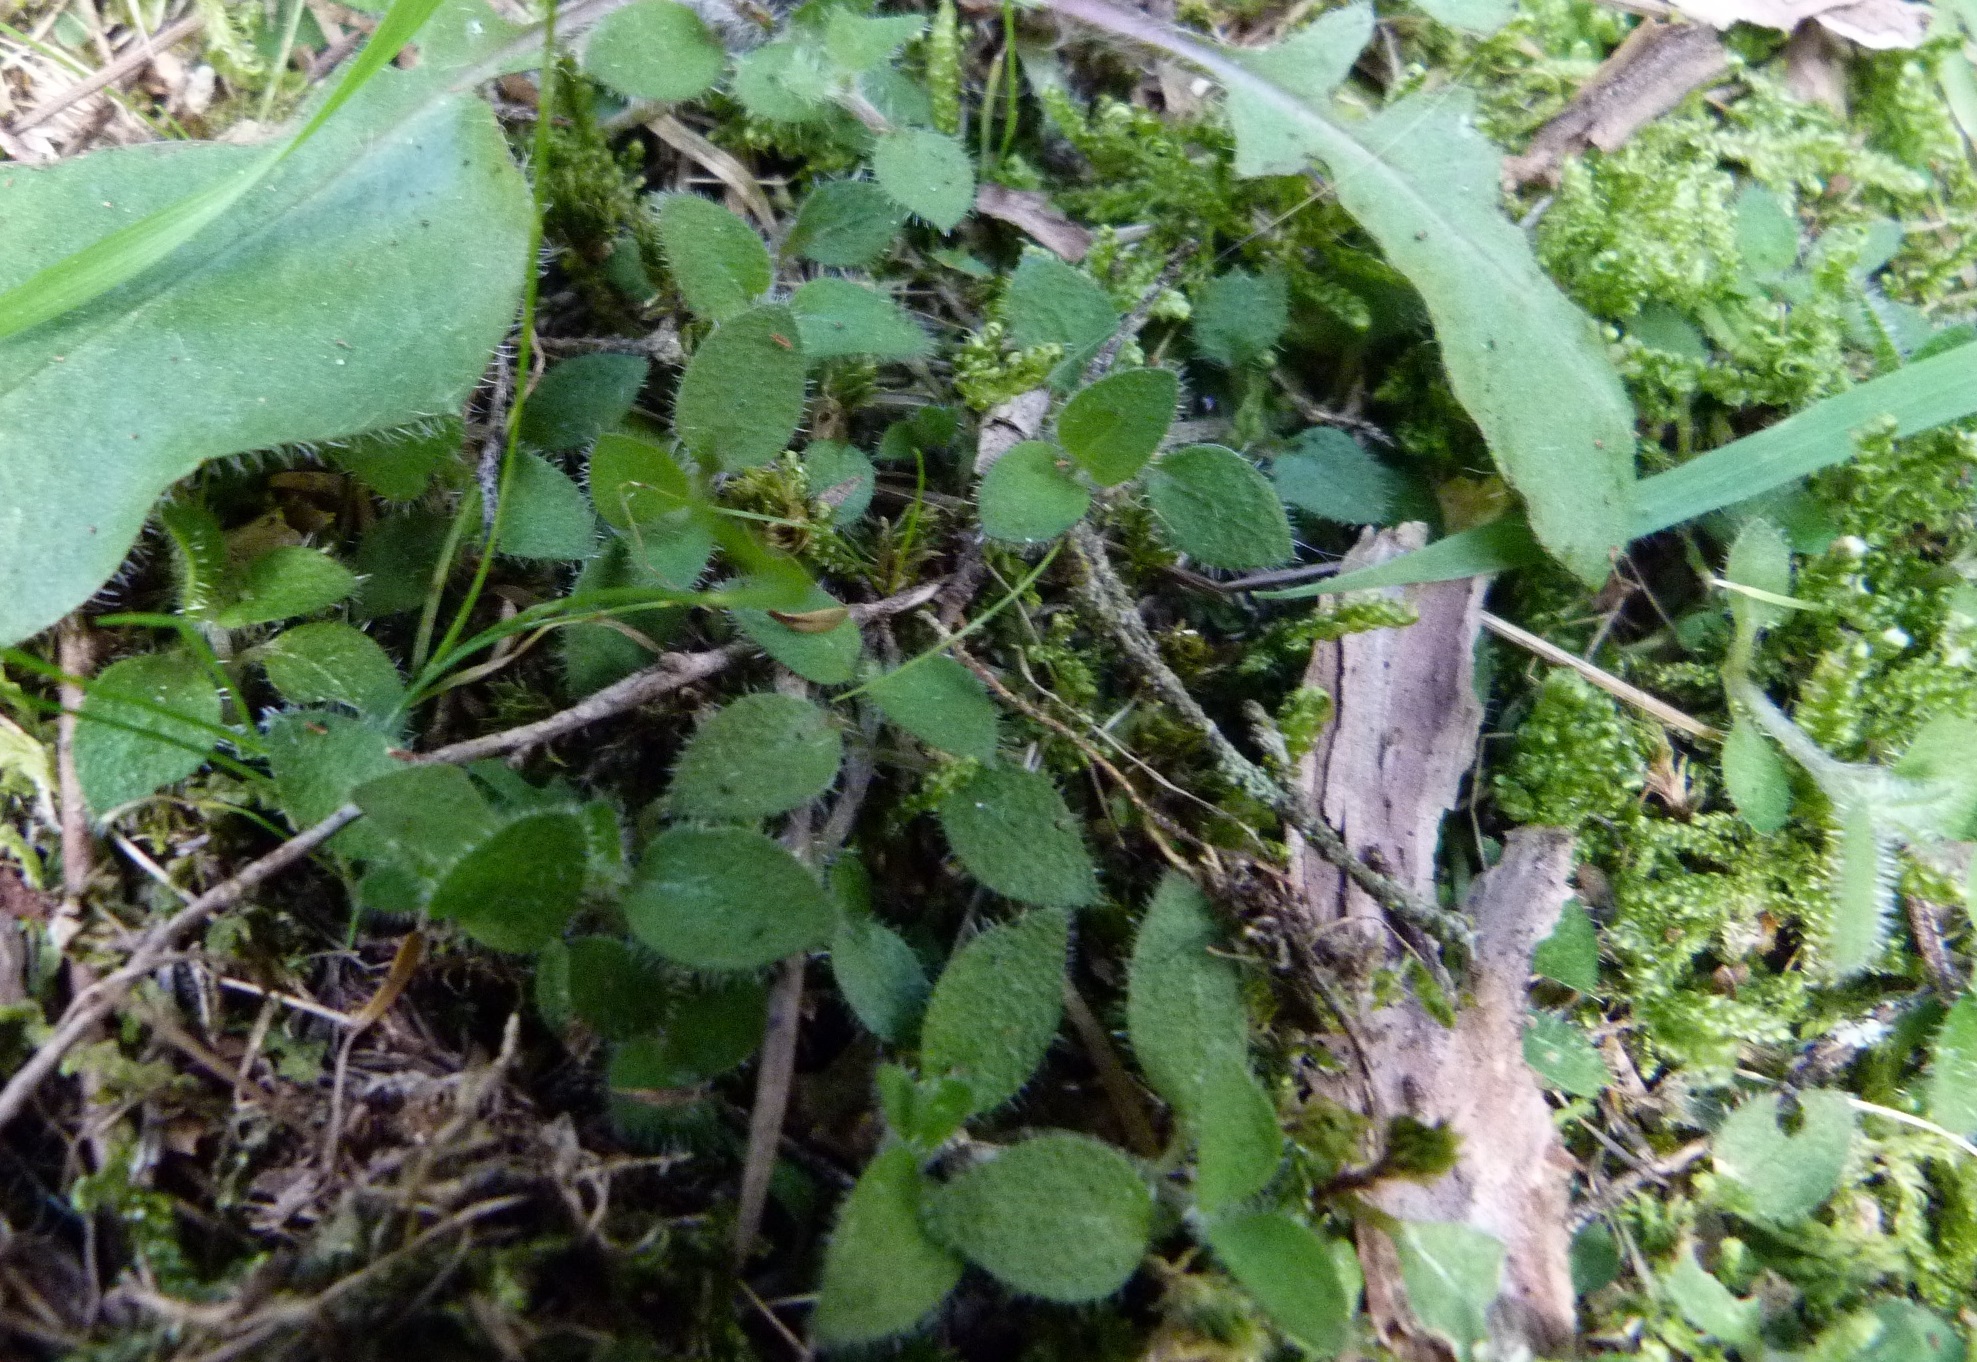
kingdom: Plantae
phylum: Tracheophyta
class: Magnoliopsida
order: Gentianales
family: Rubiaceae
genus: Leptostigma
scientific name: Leptostigma setulosum
